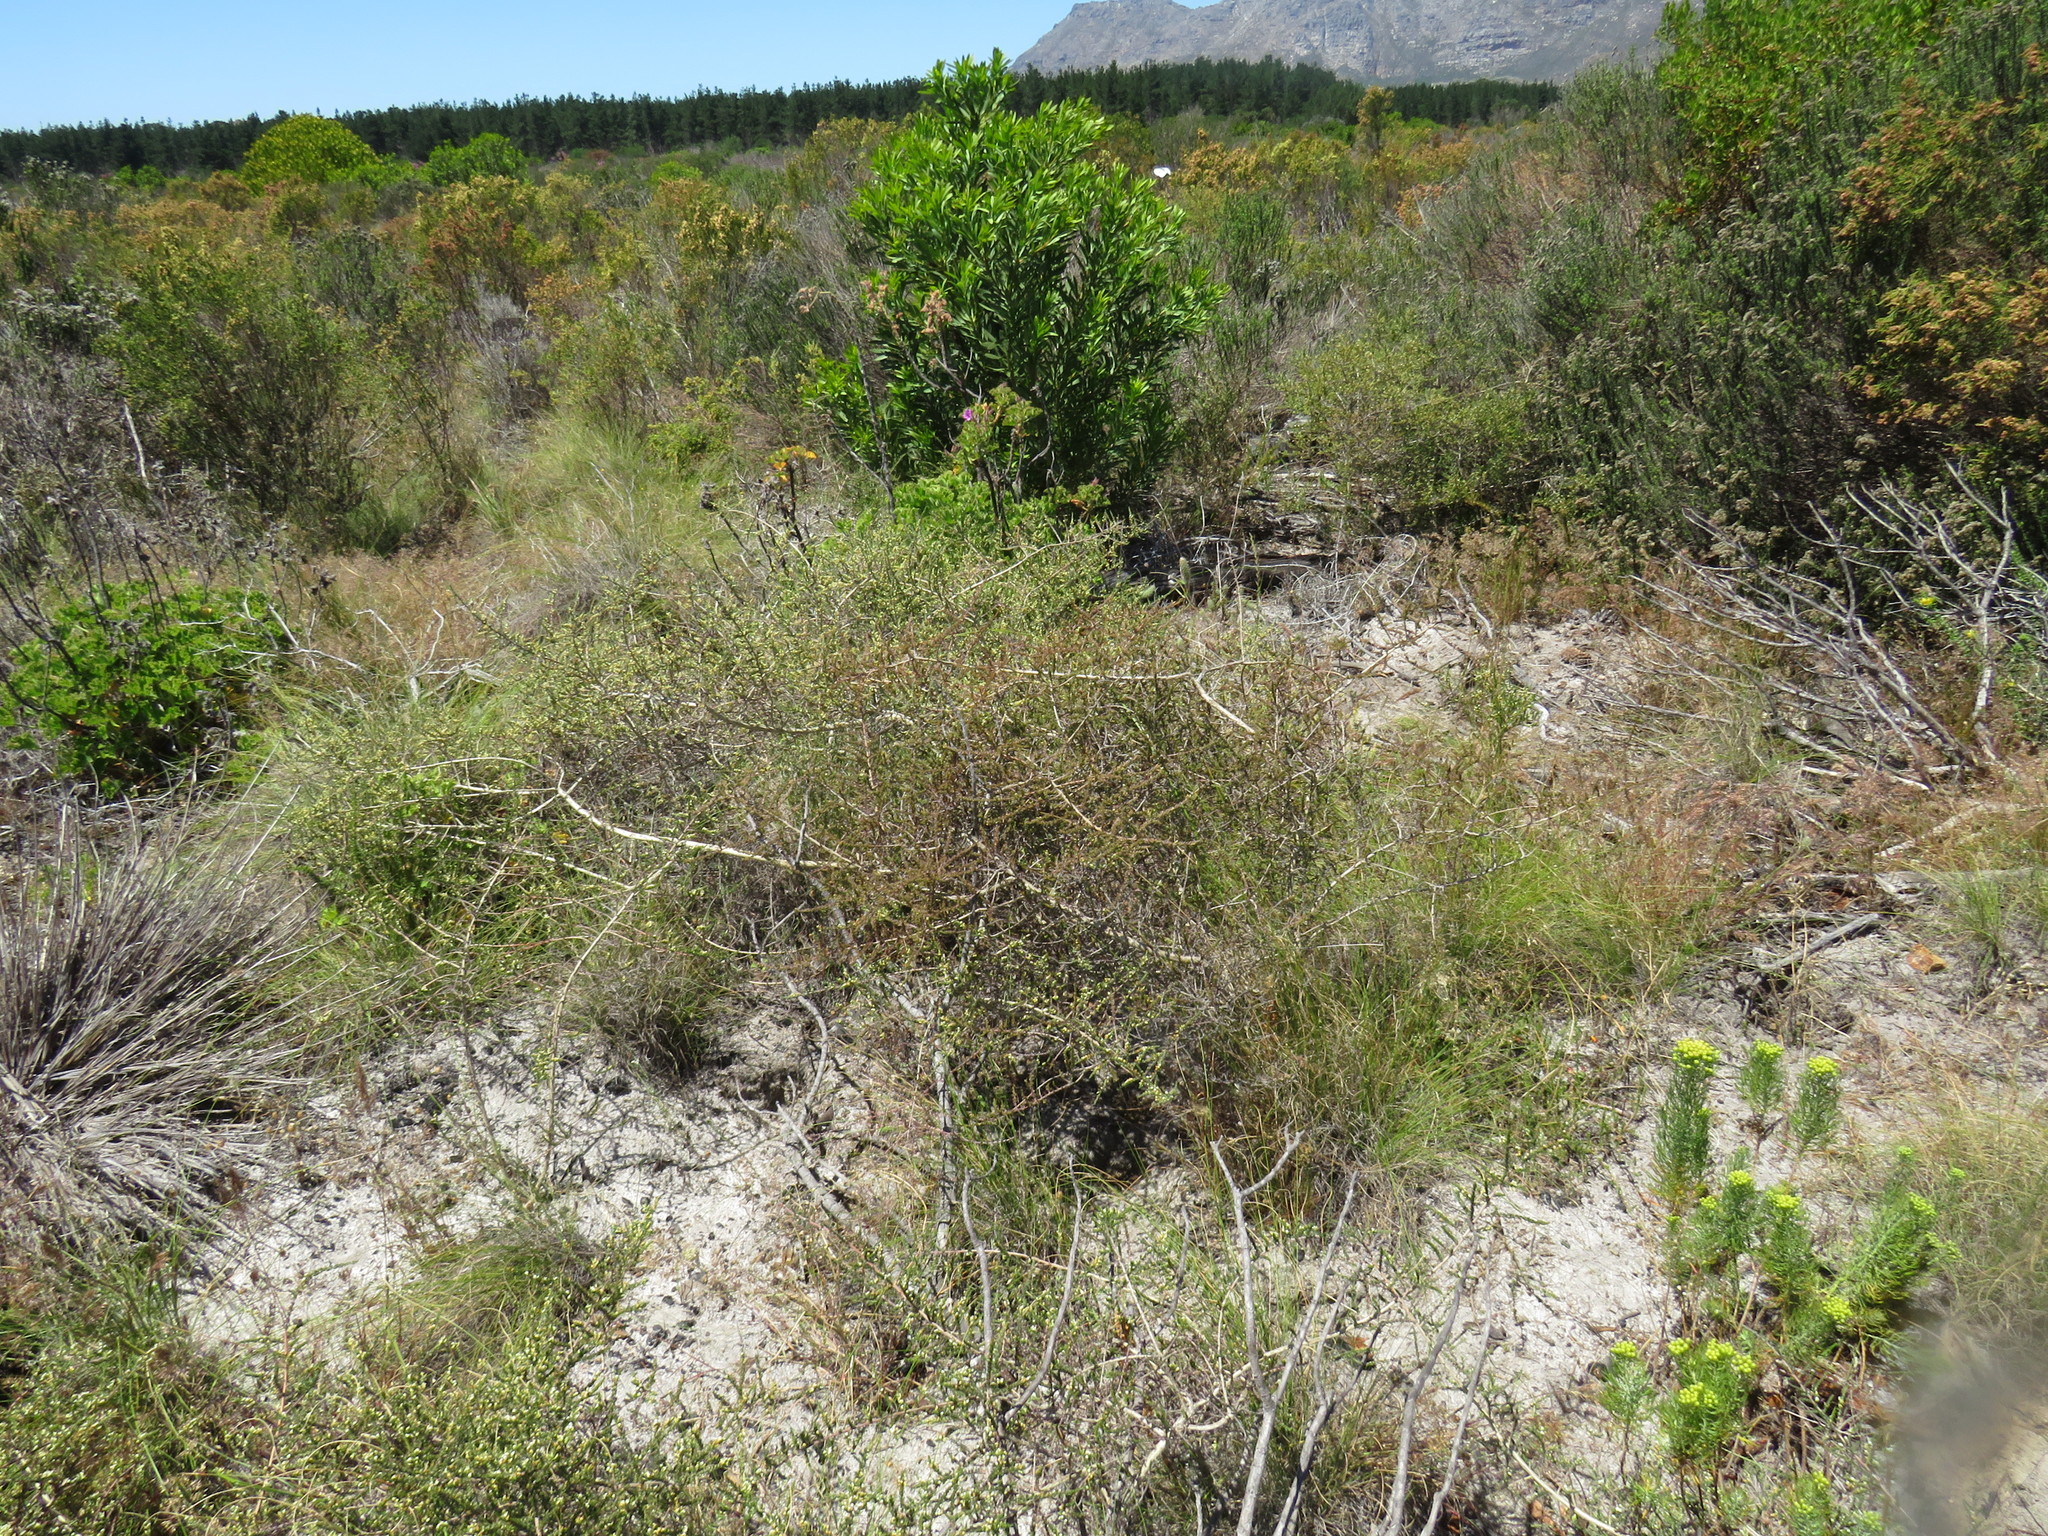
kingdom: Plantae
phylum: Tracheophyta
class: Magnoliopsida
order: Fabales
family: Fabaceae
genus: Aspalathus
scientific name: Aspalathus hispida
